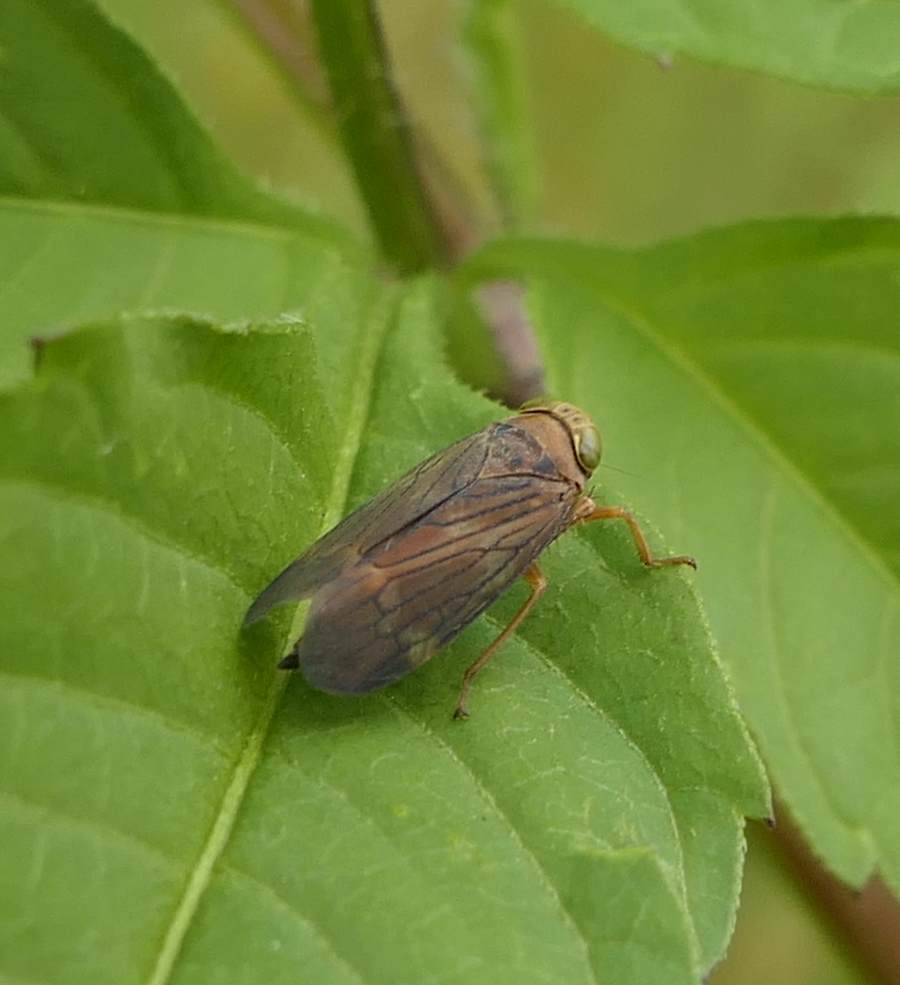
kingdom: Animalia
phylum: Arthropoda
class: Insecta
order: Hemiptera
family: Cicadellidae
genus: Jikradia
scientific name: Jikradia olitoria
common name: Coppery leafhopper
